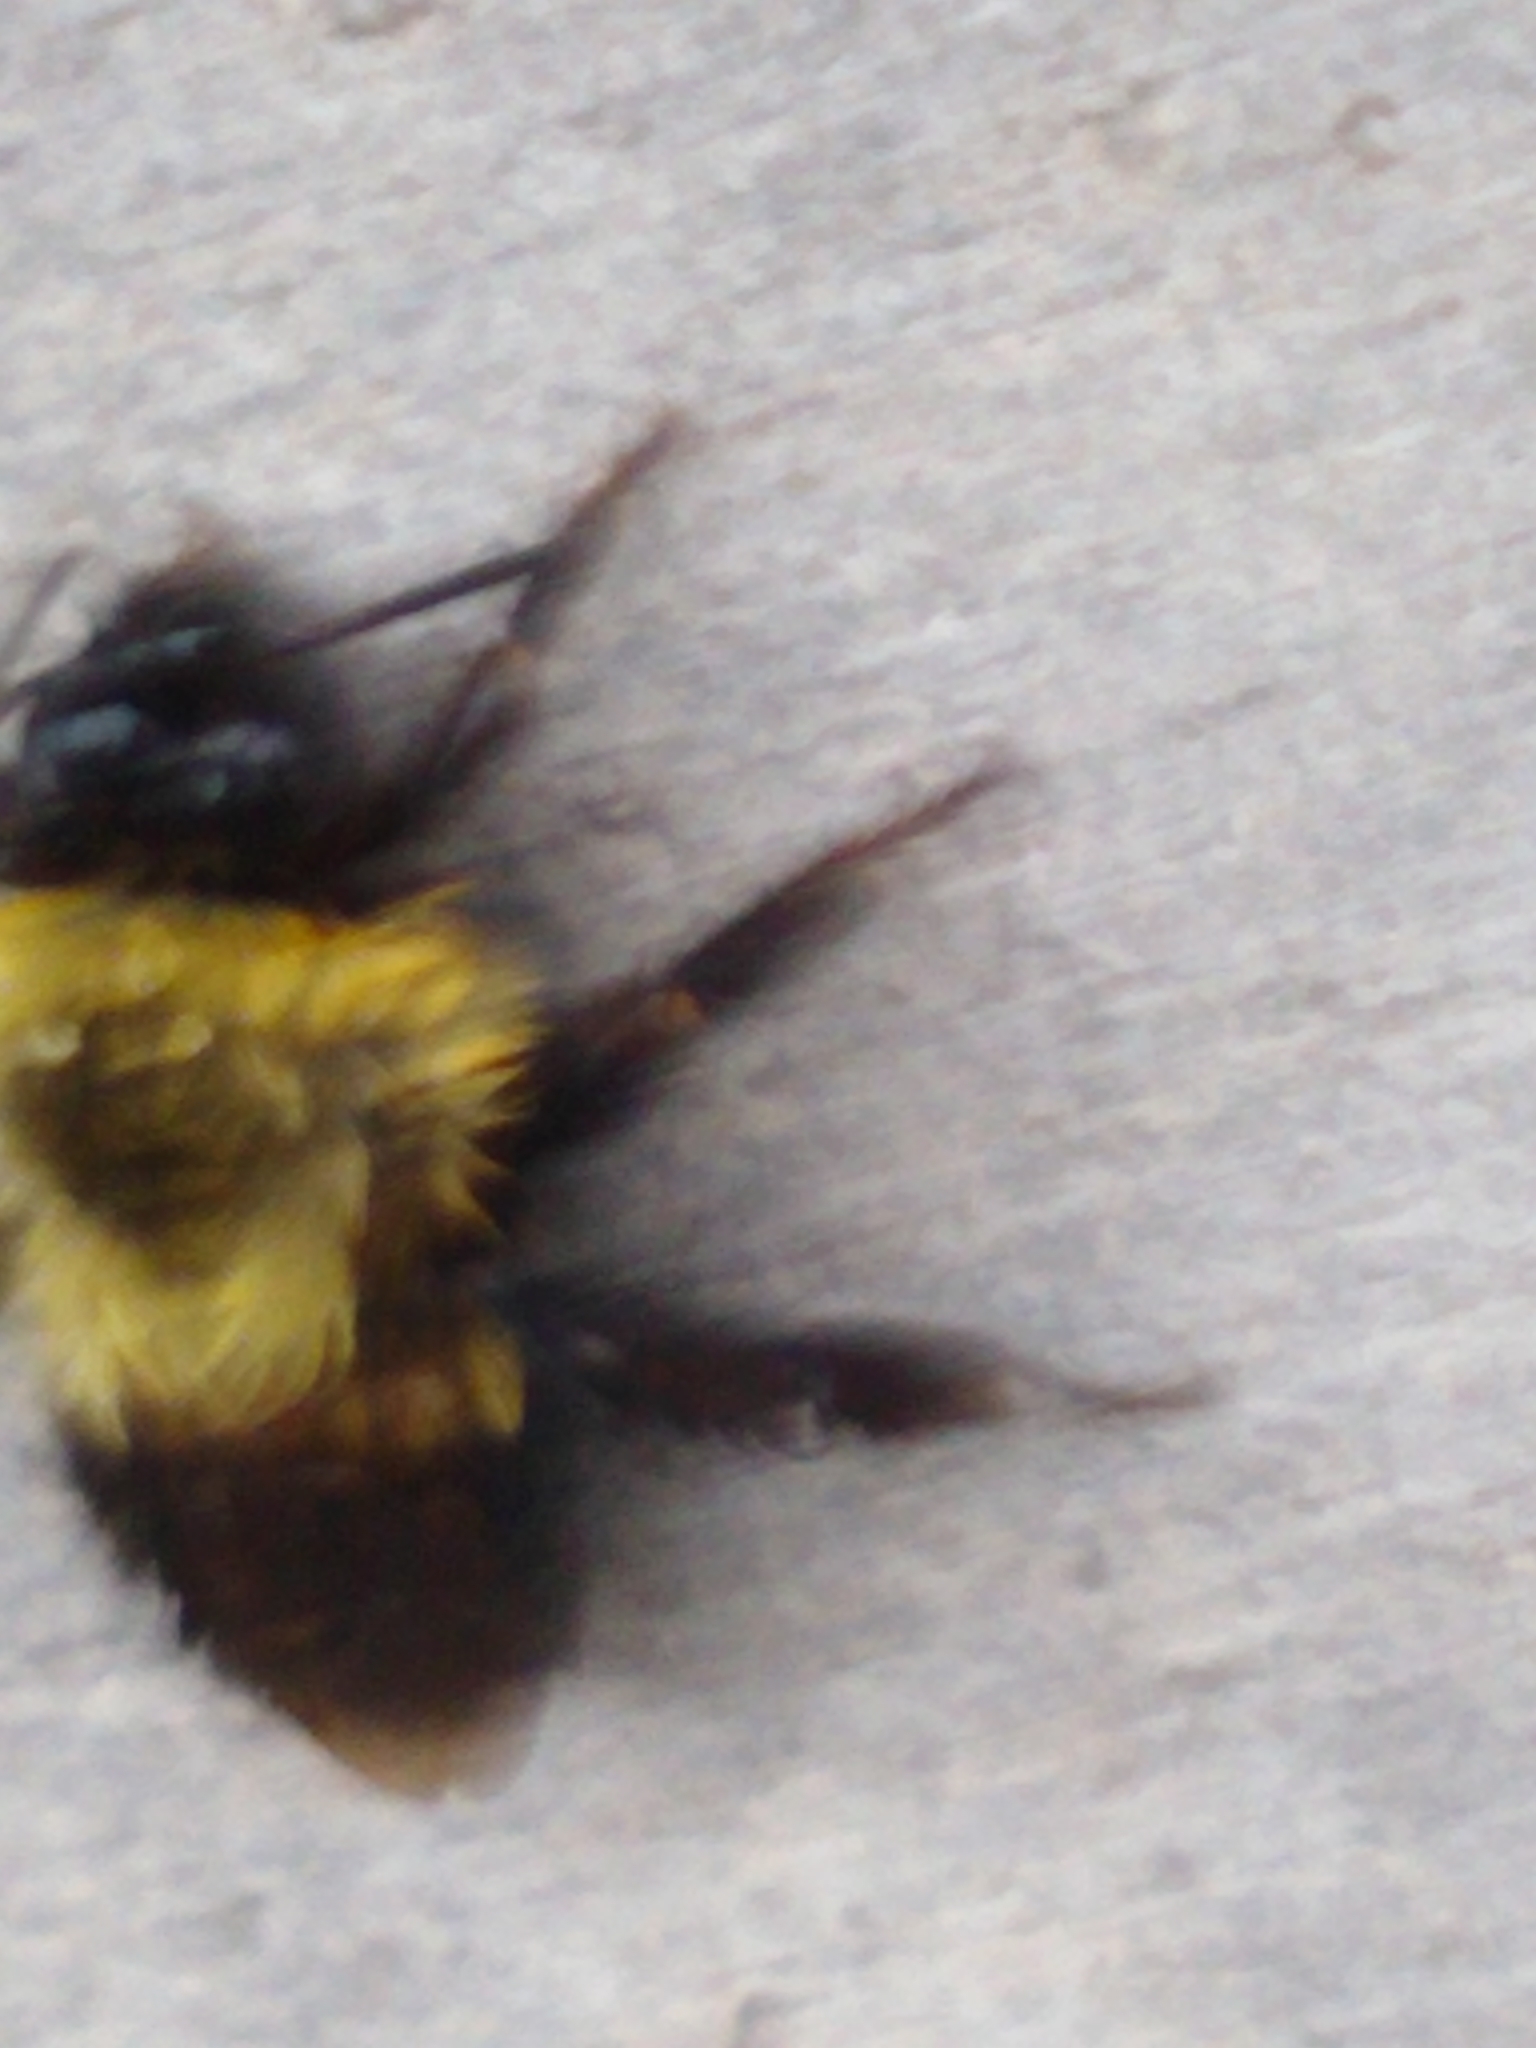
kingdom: Animalia
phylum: Arthropoda
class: Insecta
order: Hymenoptera
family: Apidae
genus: Bombus
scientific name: Bombus impatiens
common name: Common eastern bumble bee
